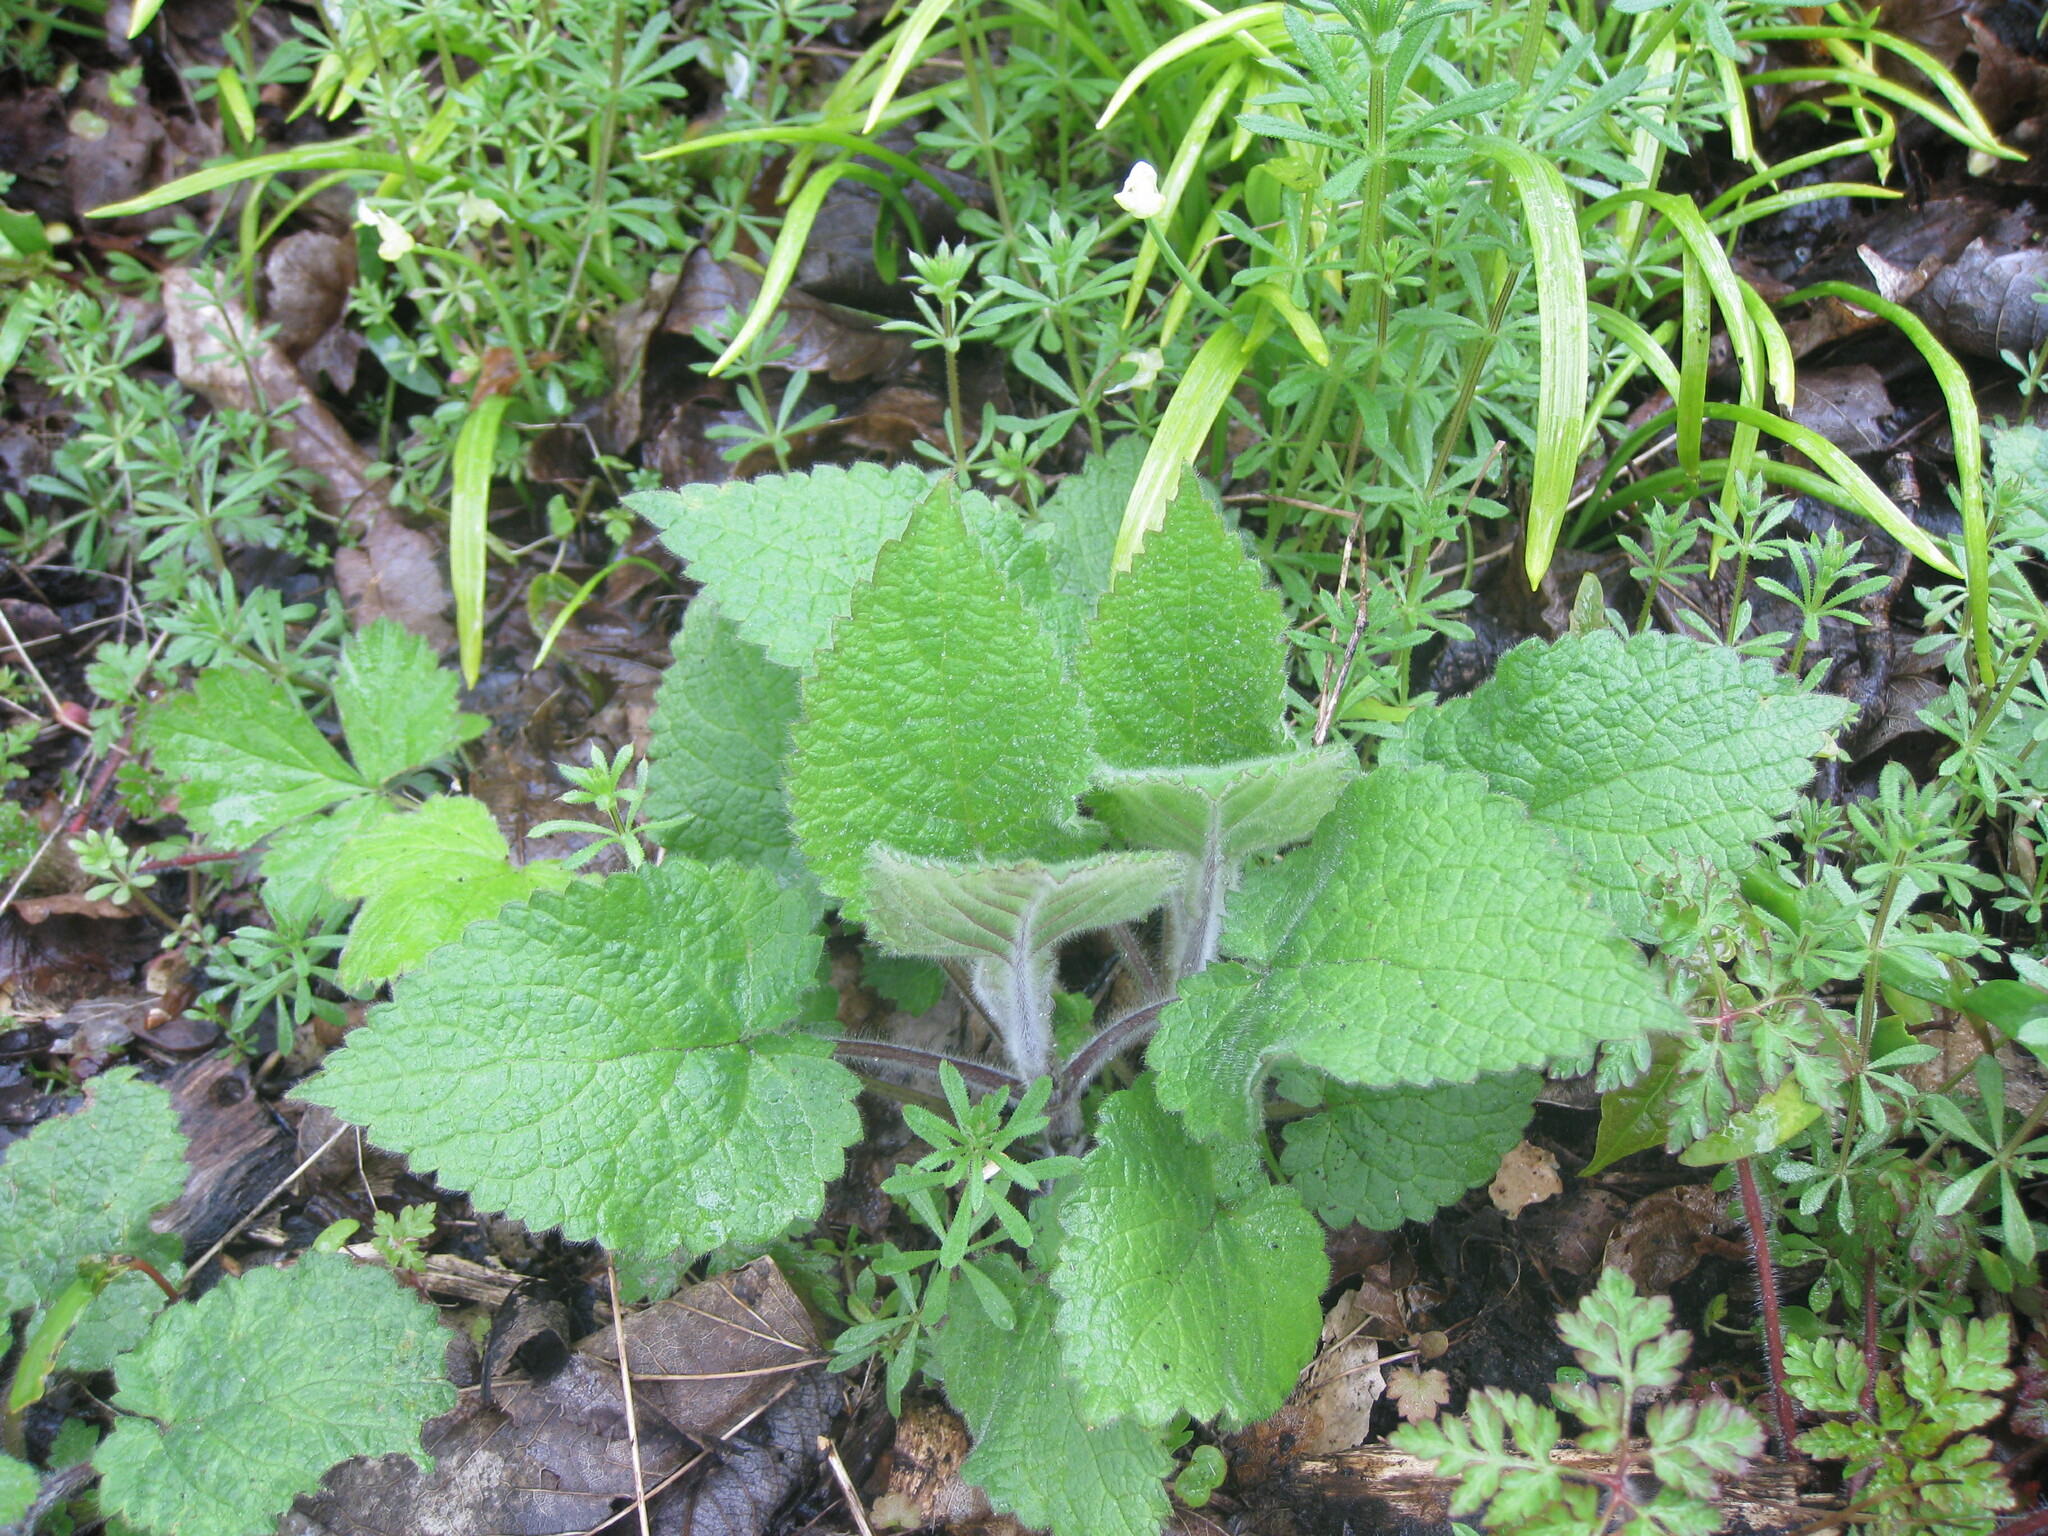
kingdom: Plantae
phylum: Tracheophyta
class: Magnoliopsida
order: Lamiales
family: Lamiaceae
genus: Stachys
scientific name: Stachys sylvatica
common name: Hedge woundwort
